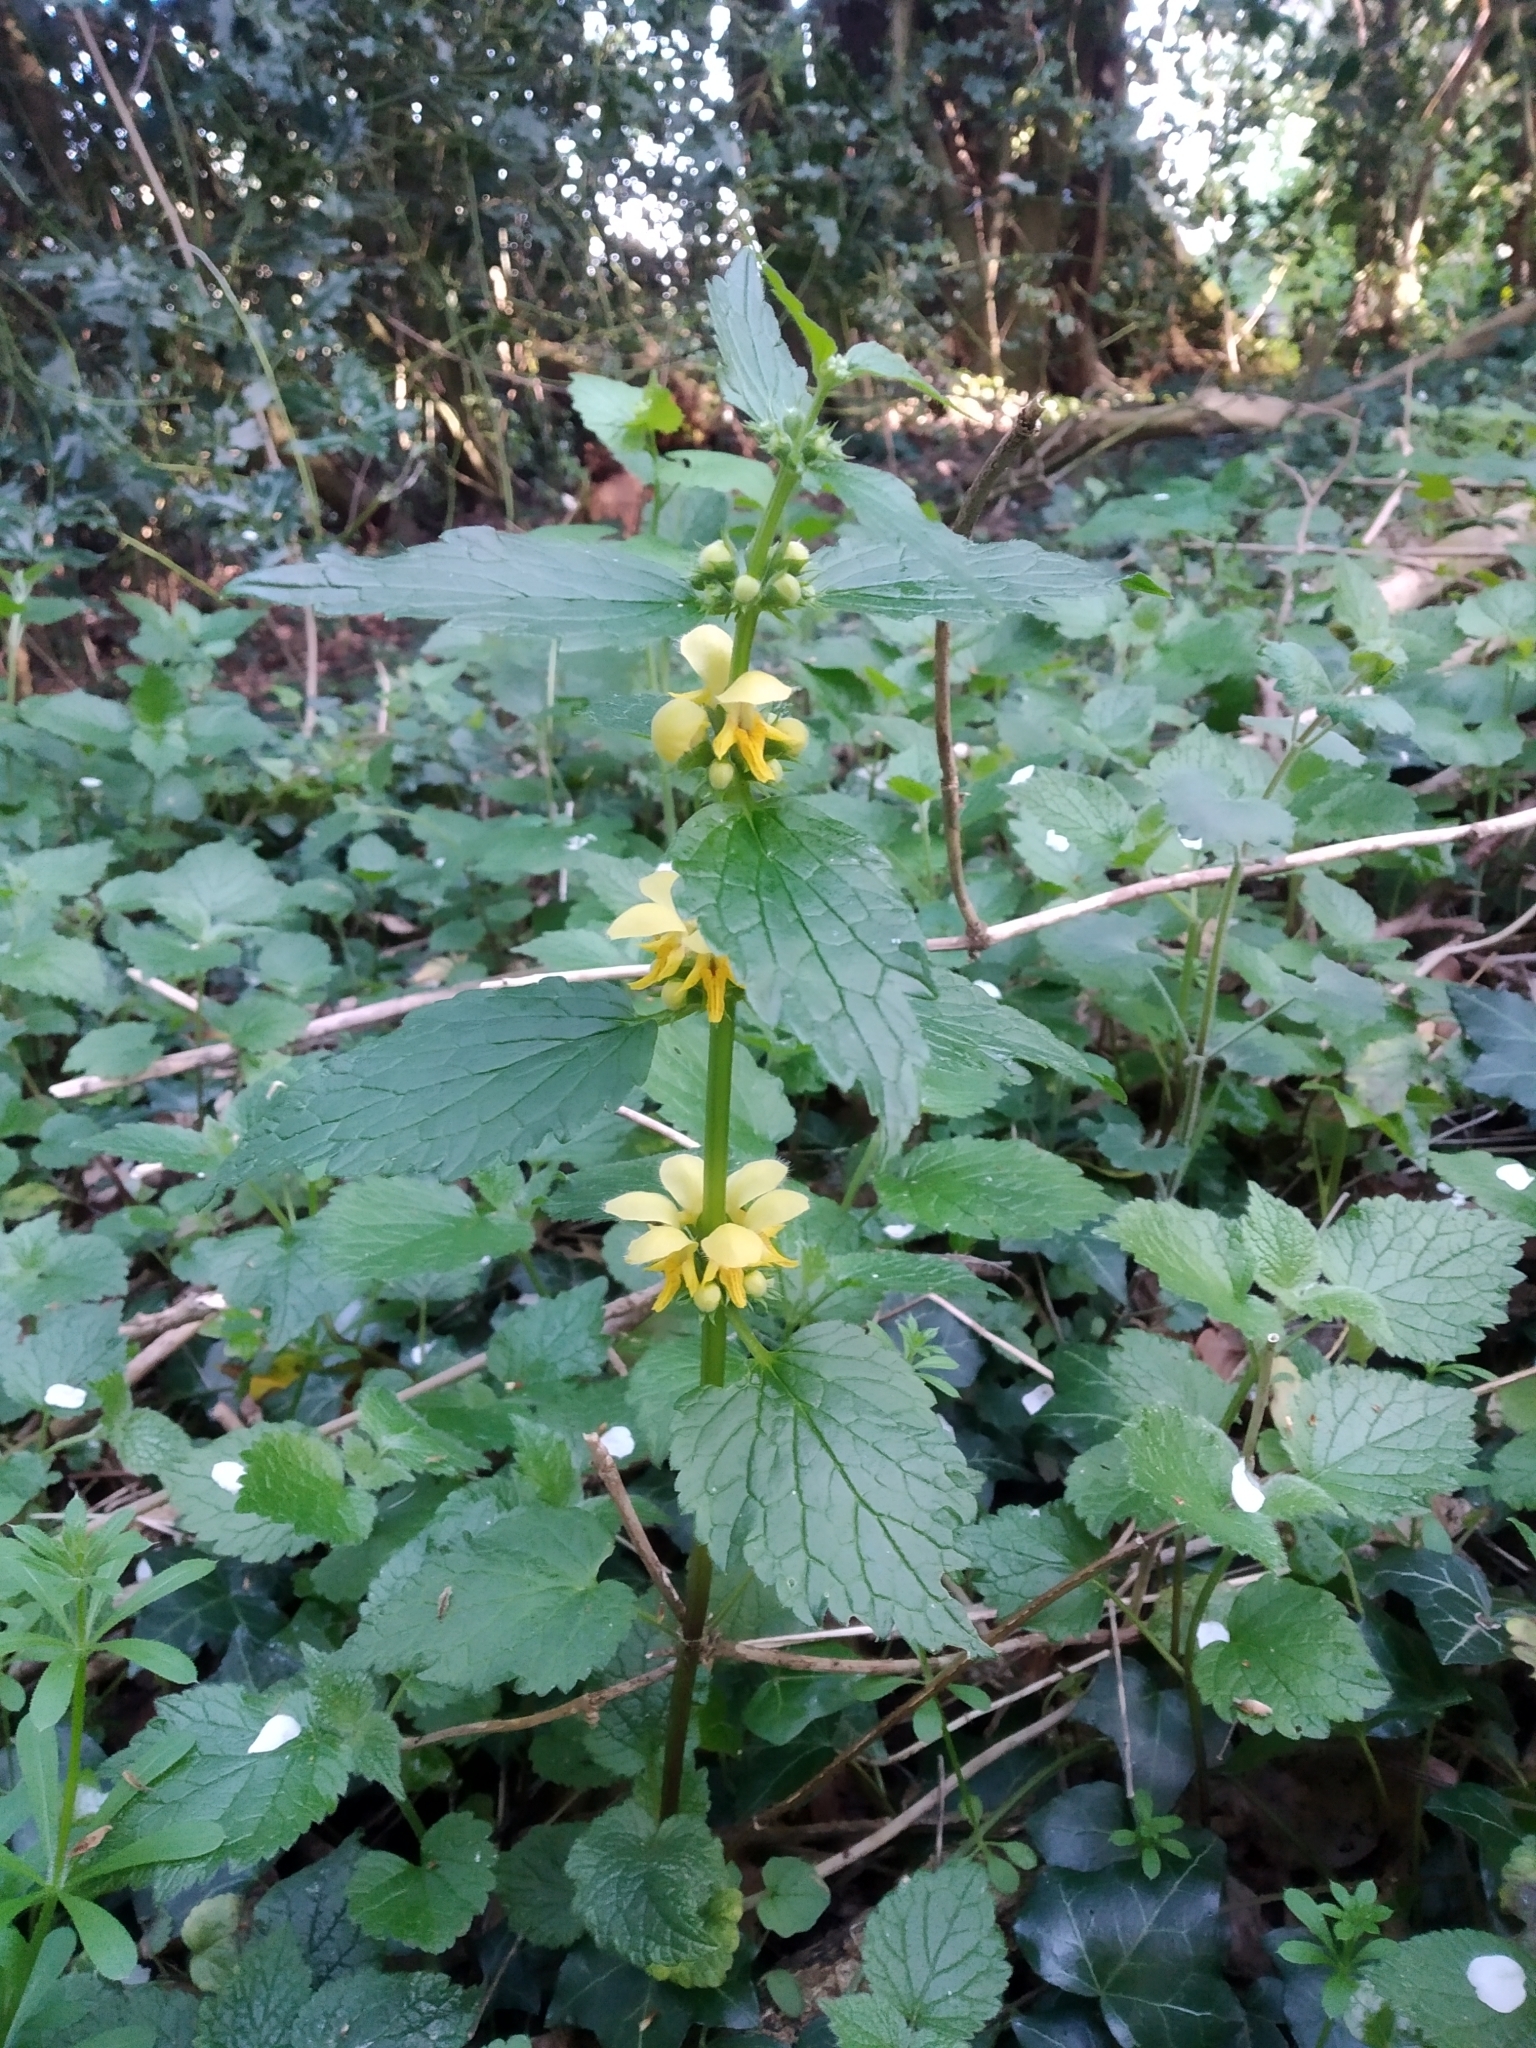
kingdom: Plantae
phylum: Tracheophyta
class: Magnoliopsida
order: Lamiales
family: Lamiaceae
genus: Lamium
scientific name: Lamium galeobdolon
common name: Yellow archangel
